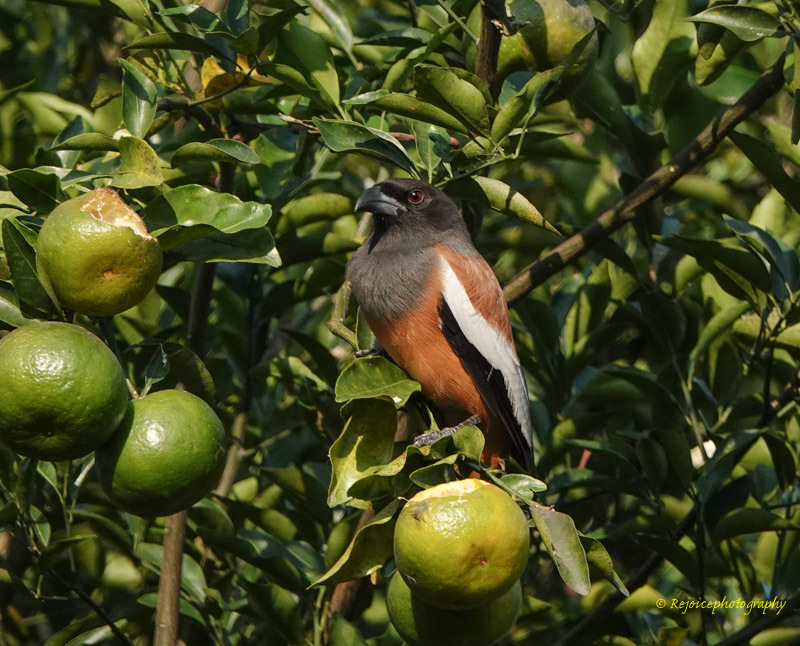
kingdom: Animalia
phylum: Chordata
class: Aves
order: Passeriformes
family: Corvidae
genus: Dendrocitta
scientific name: Dendrocitta vagabunda
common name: Rufous treepie
